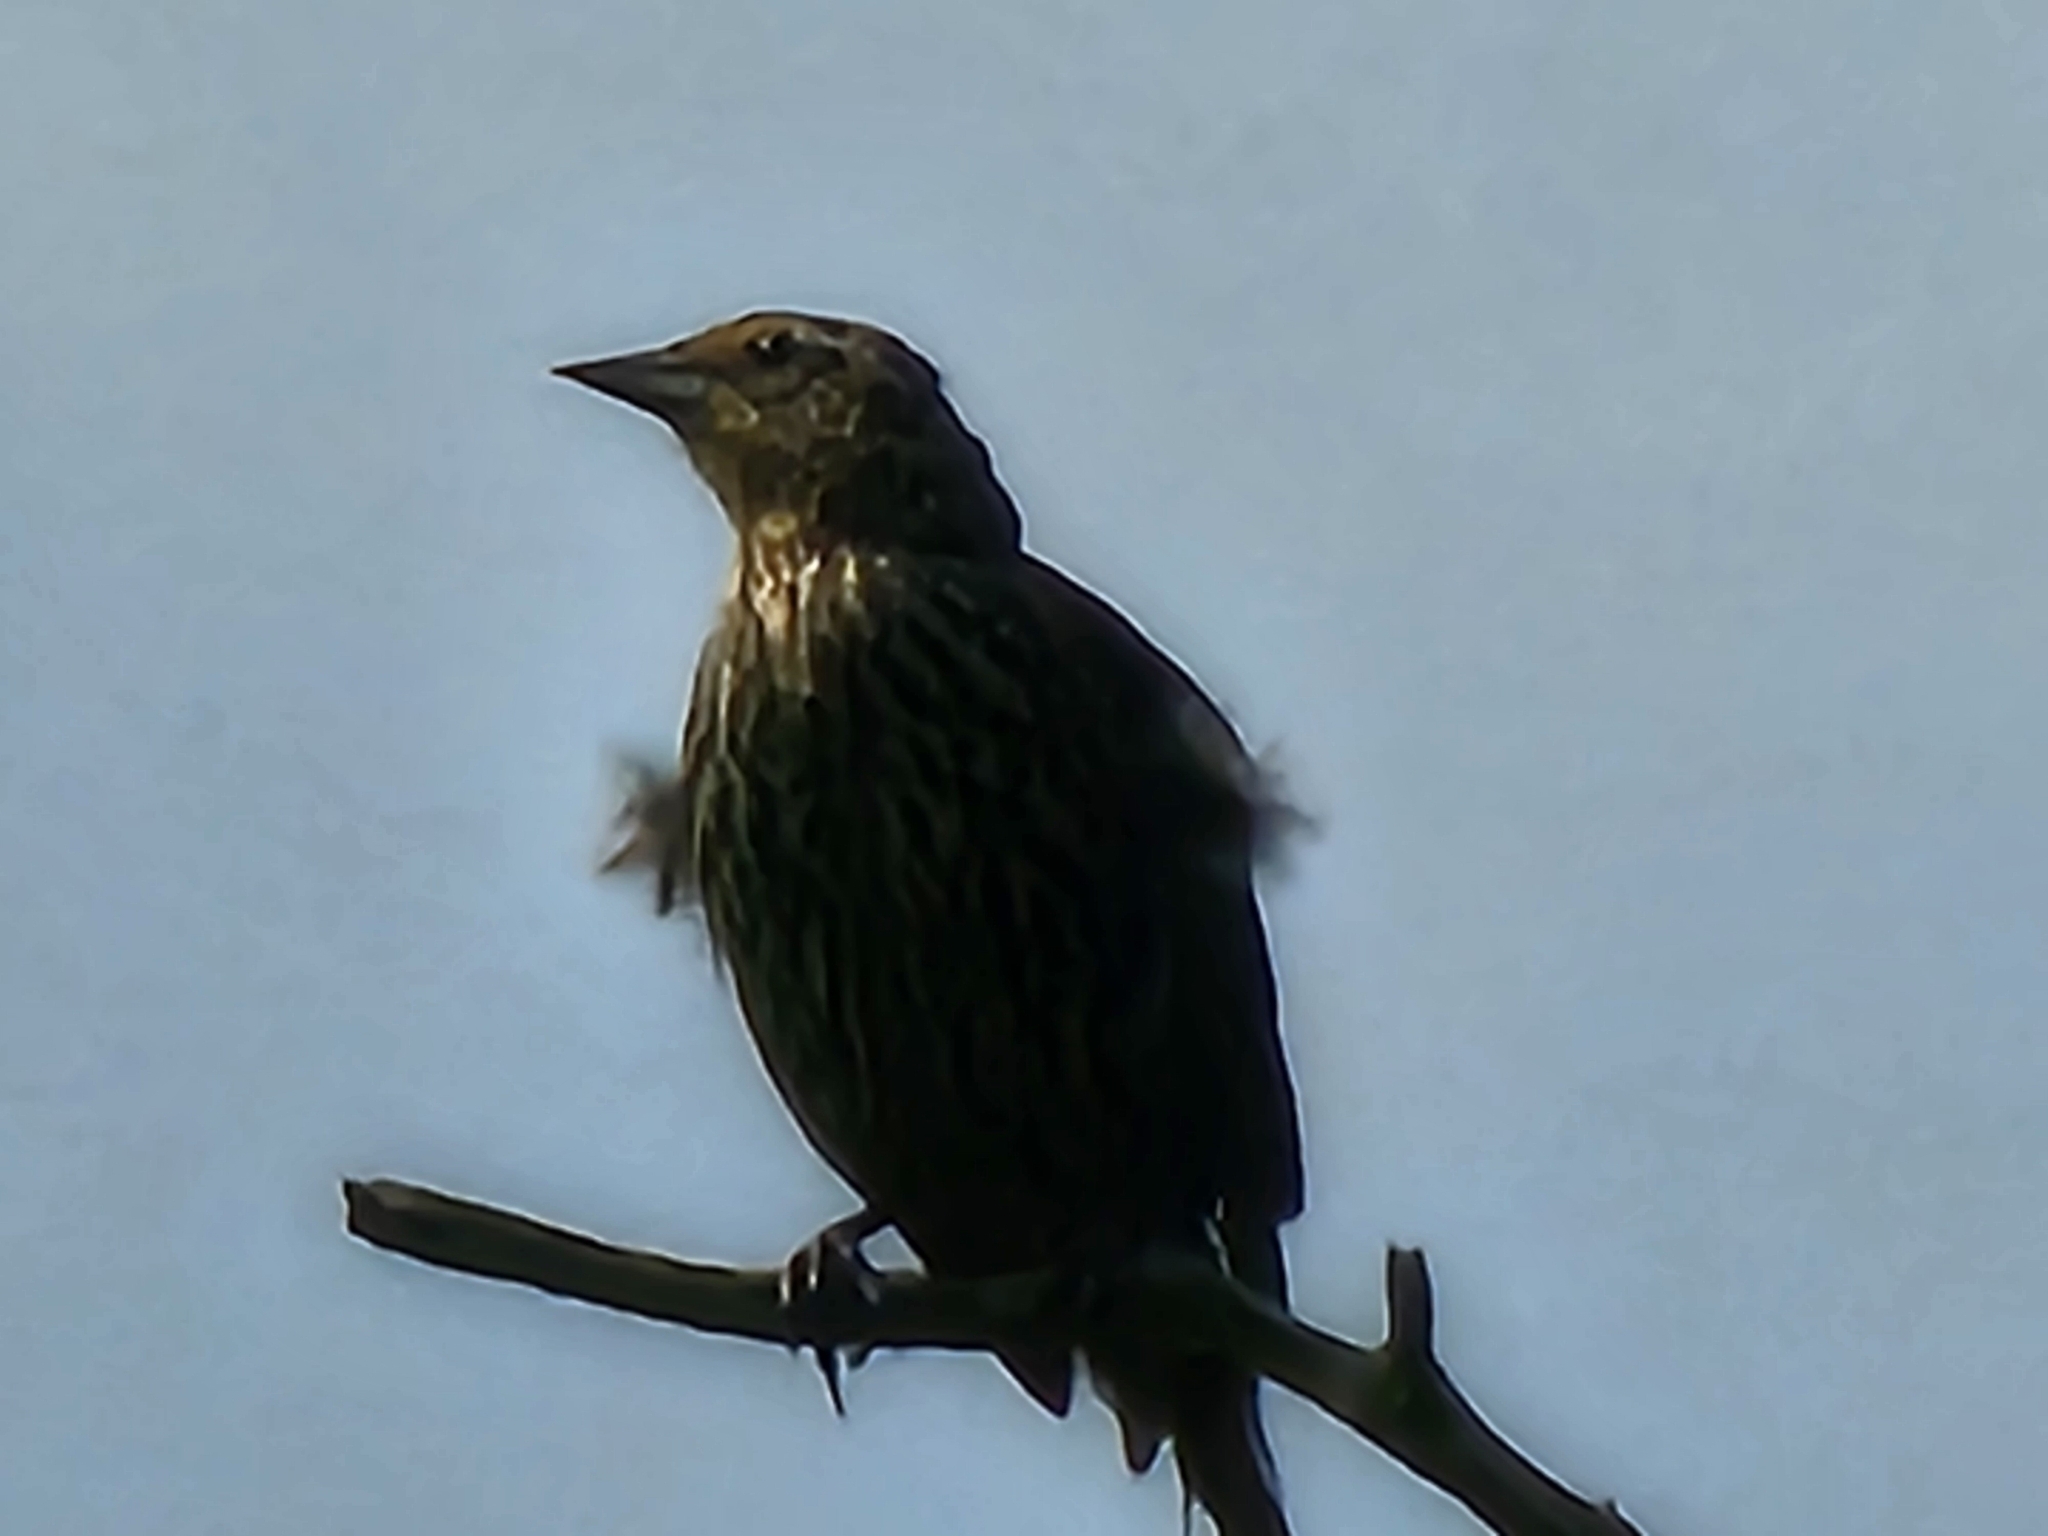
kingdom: Animalia
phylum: Chordata
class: Aves
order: Passeriformes
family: Icteridae
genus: Agelaius
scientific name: Agelaius phoeniceus
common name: Red-winged blackbird
